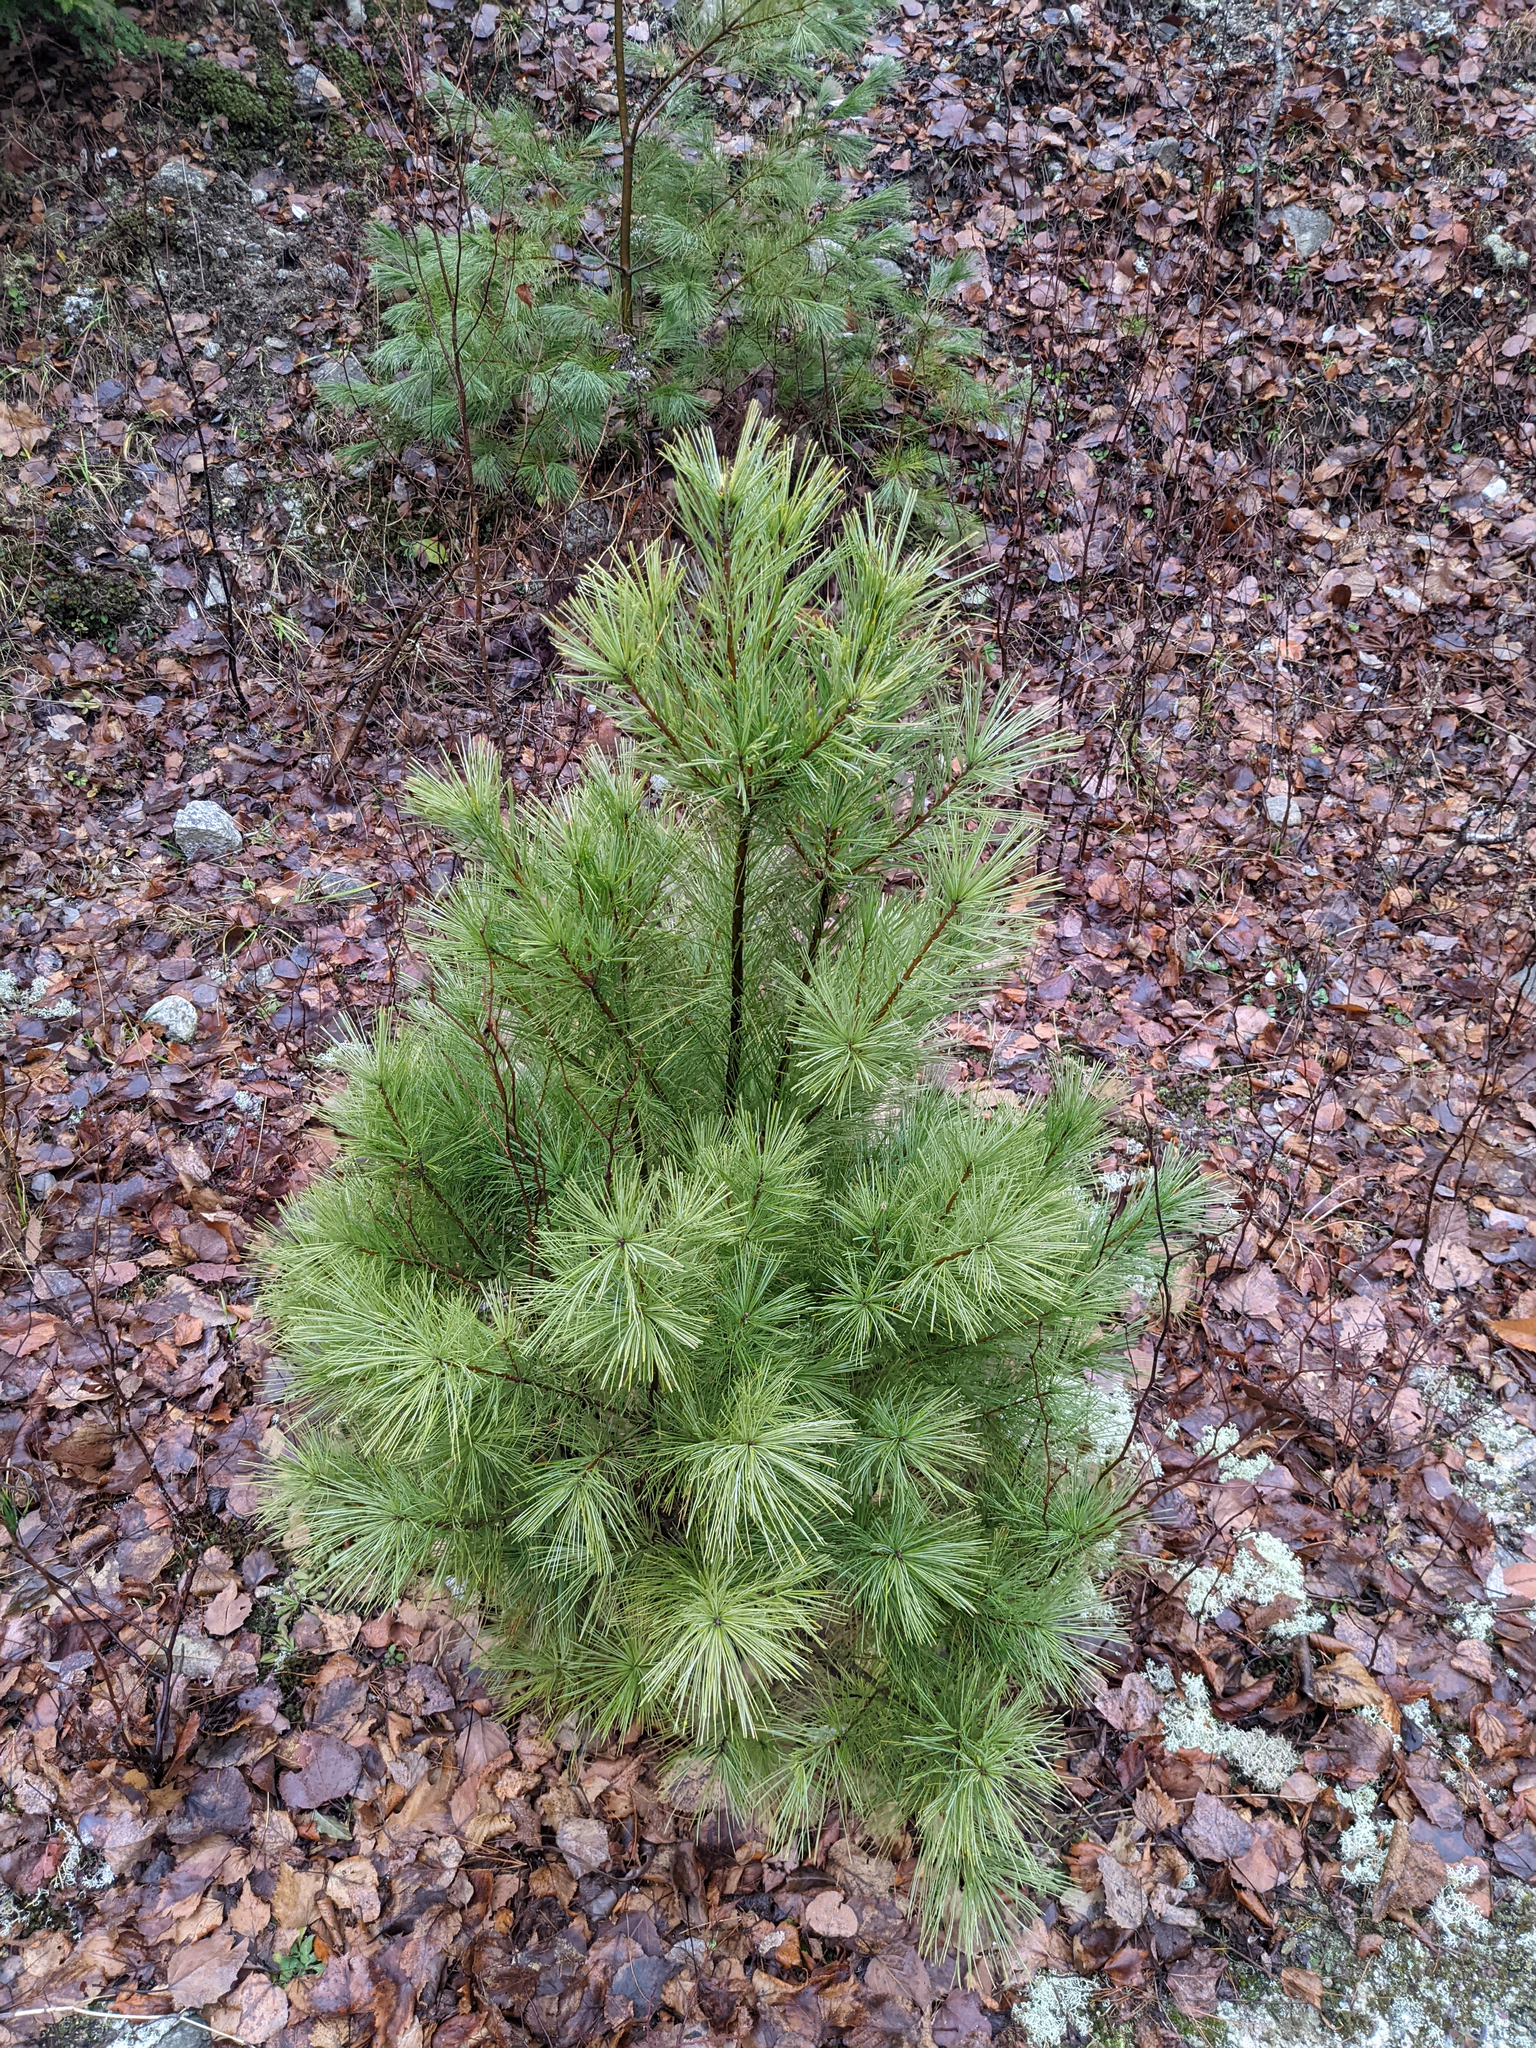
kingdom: Plantae
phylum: Tracheophyta
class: Pinopsida
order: Pinales
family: Pinaceae
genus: Pinus
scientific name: Pinus strobus
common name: Weymouth pine
